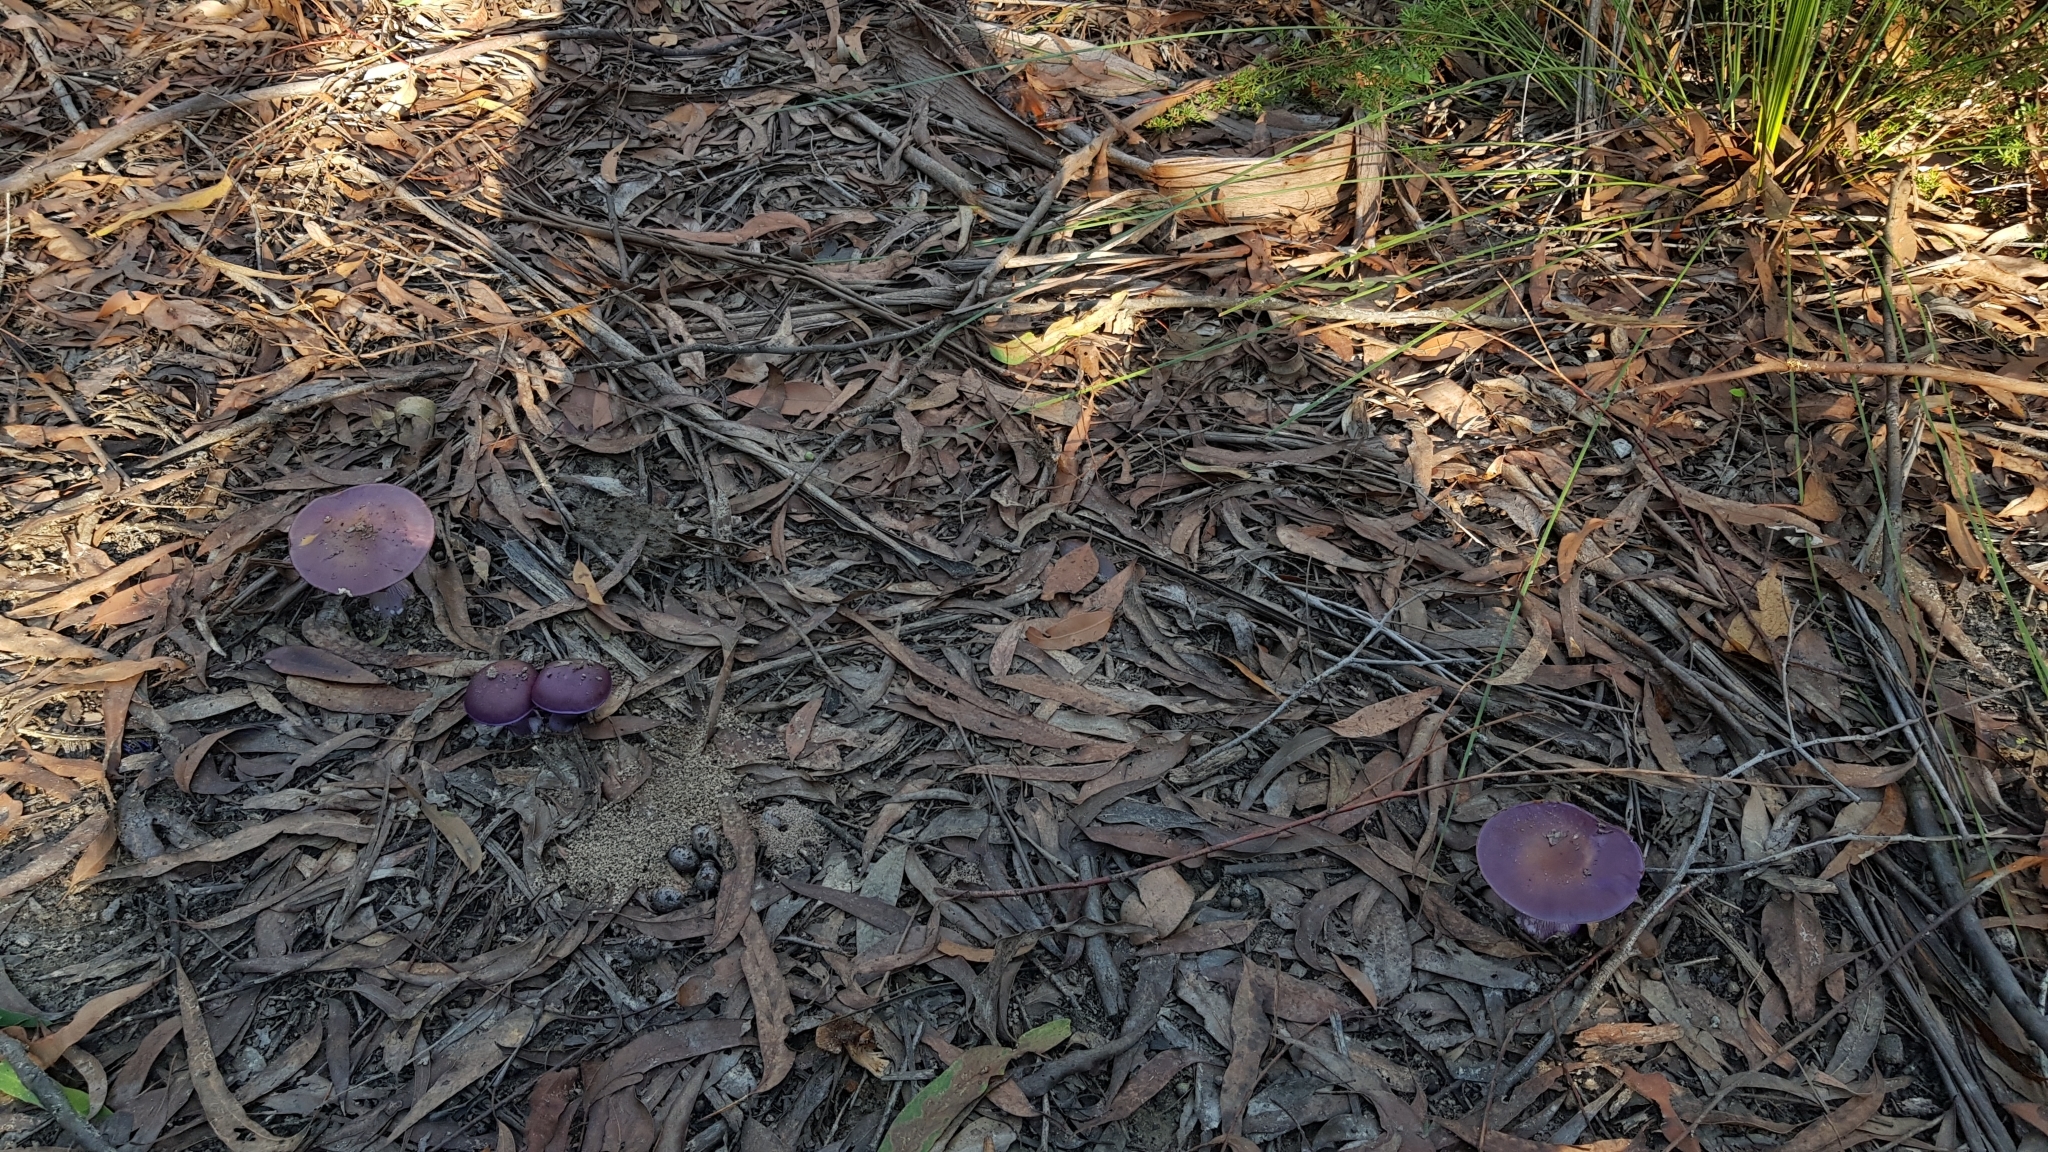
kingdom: Fungi
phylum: Basidiomycota
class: Agaricomycetes
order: Agaricales
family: Cortinariaceae
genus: Cortinarius
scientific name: Cortinarius archeri
